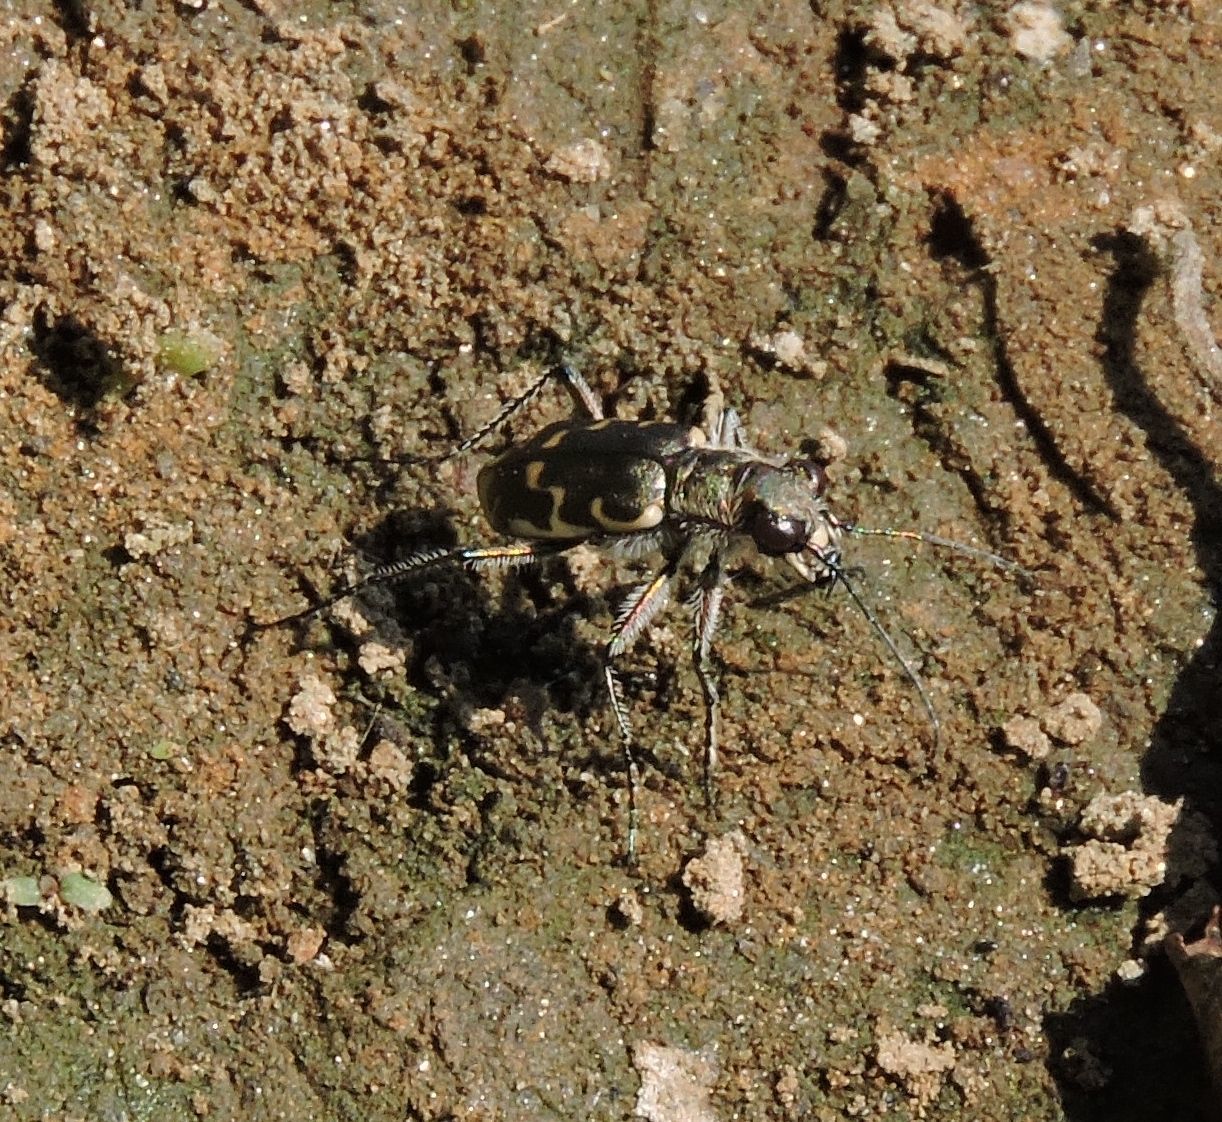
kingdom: Animalia
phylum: Arthropoda
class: Insecta
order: Coleoptera
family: Carabidae
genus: Cicindela
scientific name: Cicindela repanda
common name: Bronzed tiger beetle
